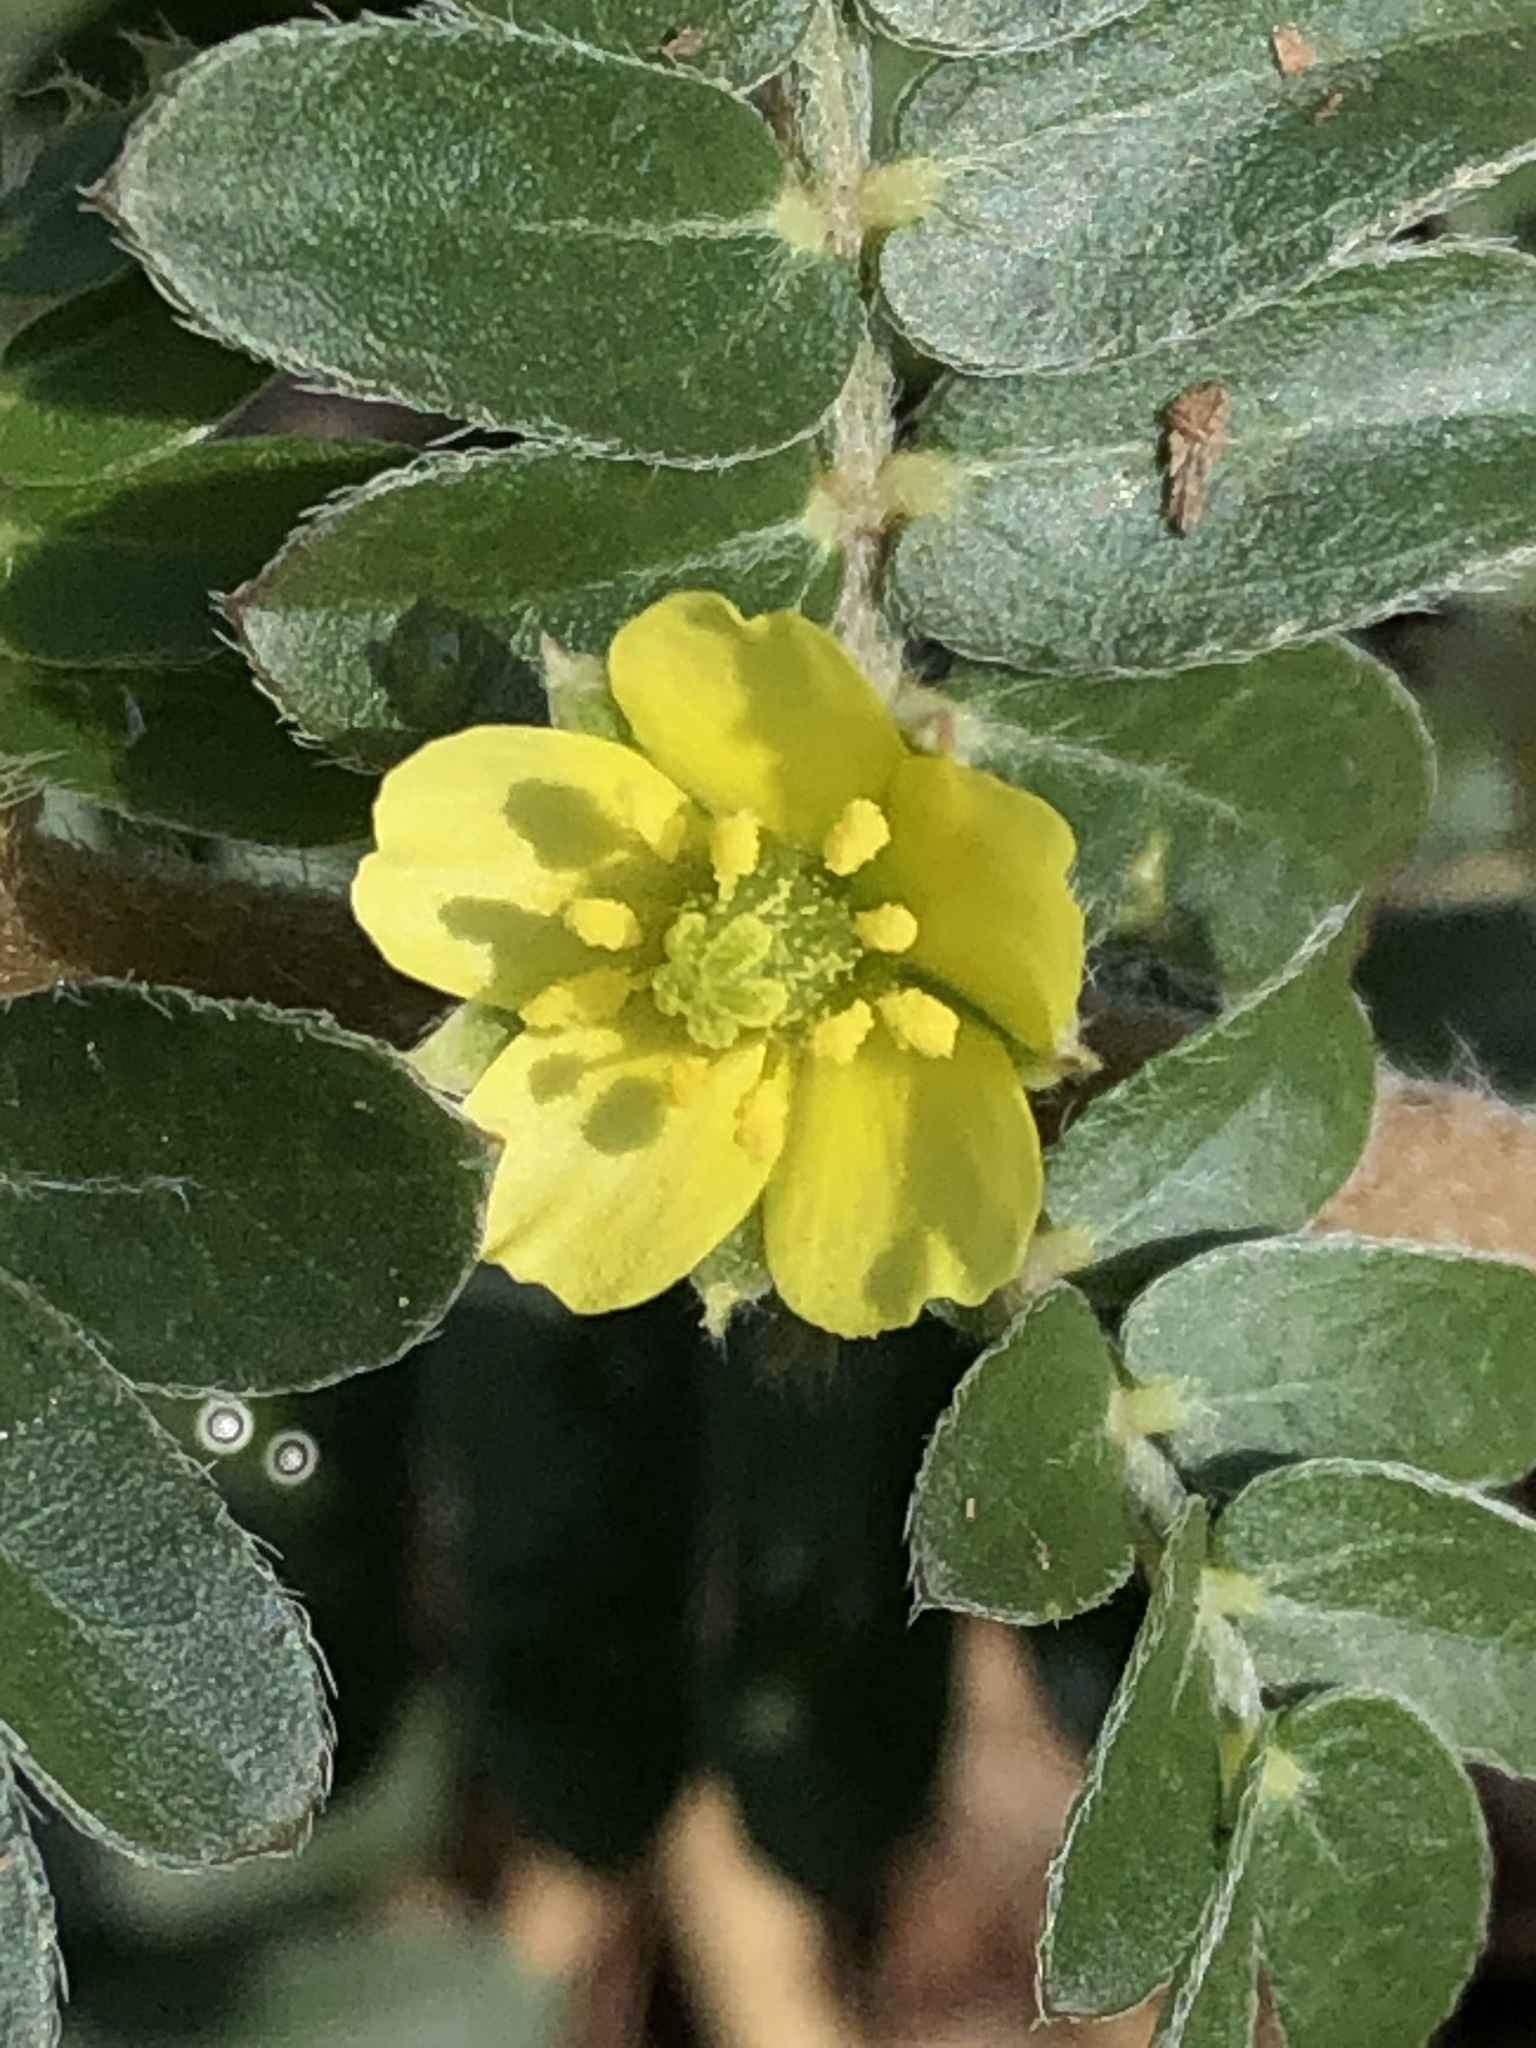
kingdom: Plantae
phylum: Tracheophyta
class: Magnoliopsida
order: Zygophyllales
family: Zygophyllaceae
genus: Tribulus
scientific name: Tribulus terrestris
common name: Puncturevine
